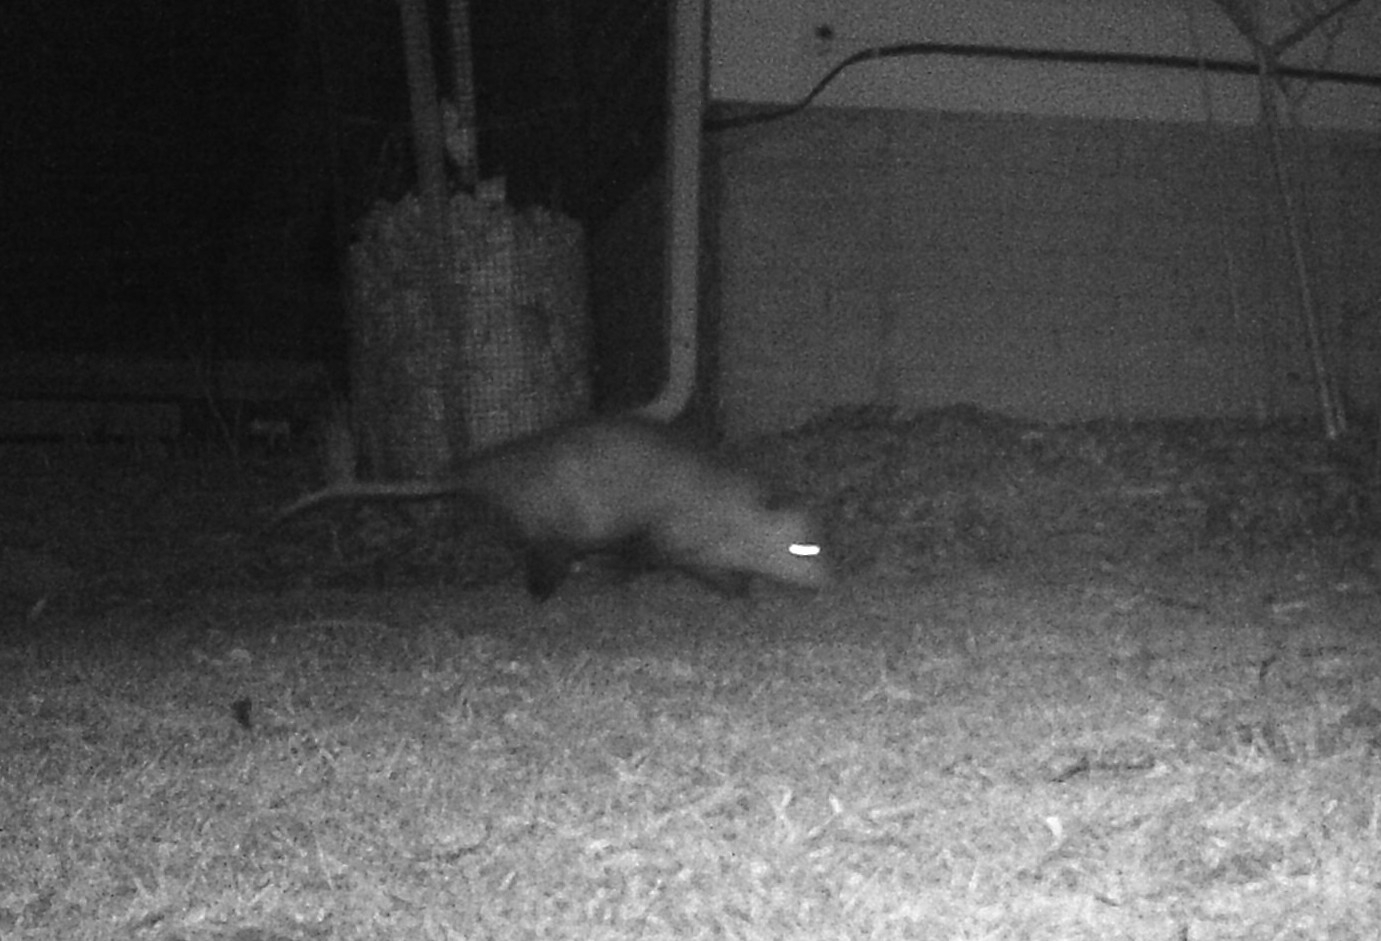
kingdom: Animalia
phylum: Chordata
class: Mammalia
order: Didelphimorphia
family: Didelphidae
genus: Didelphis
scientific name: Didelphis virginiana
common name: Virginia opossum
